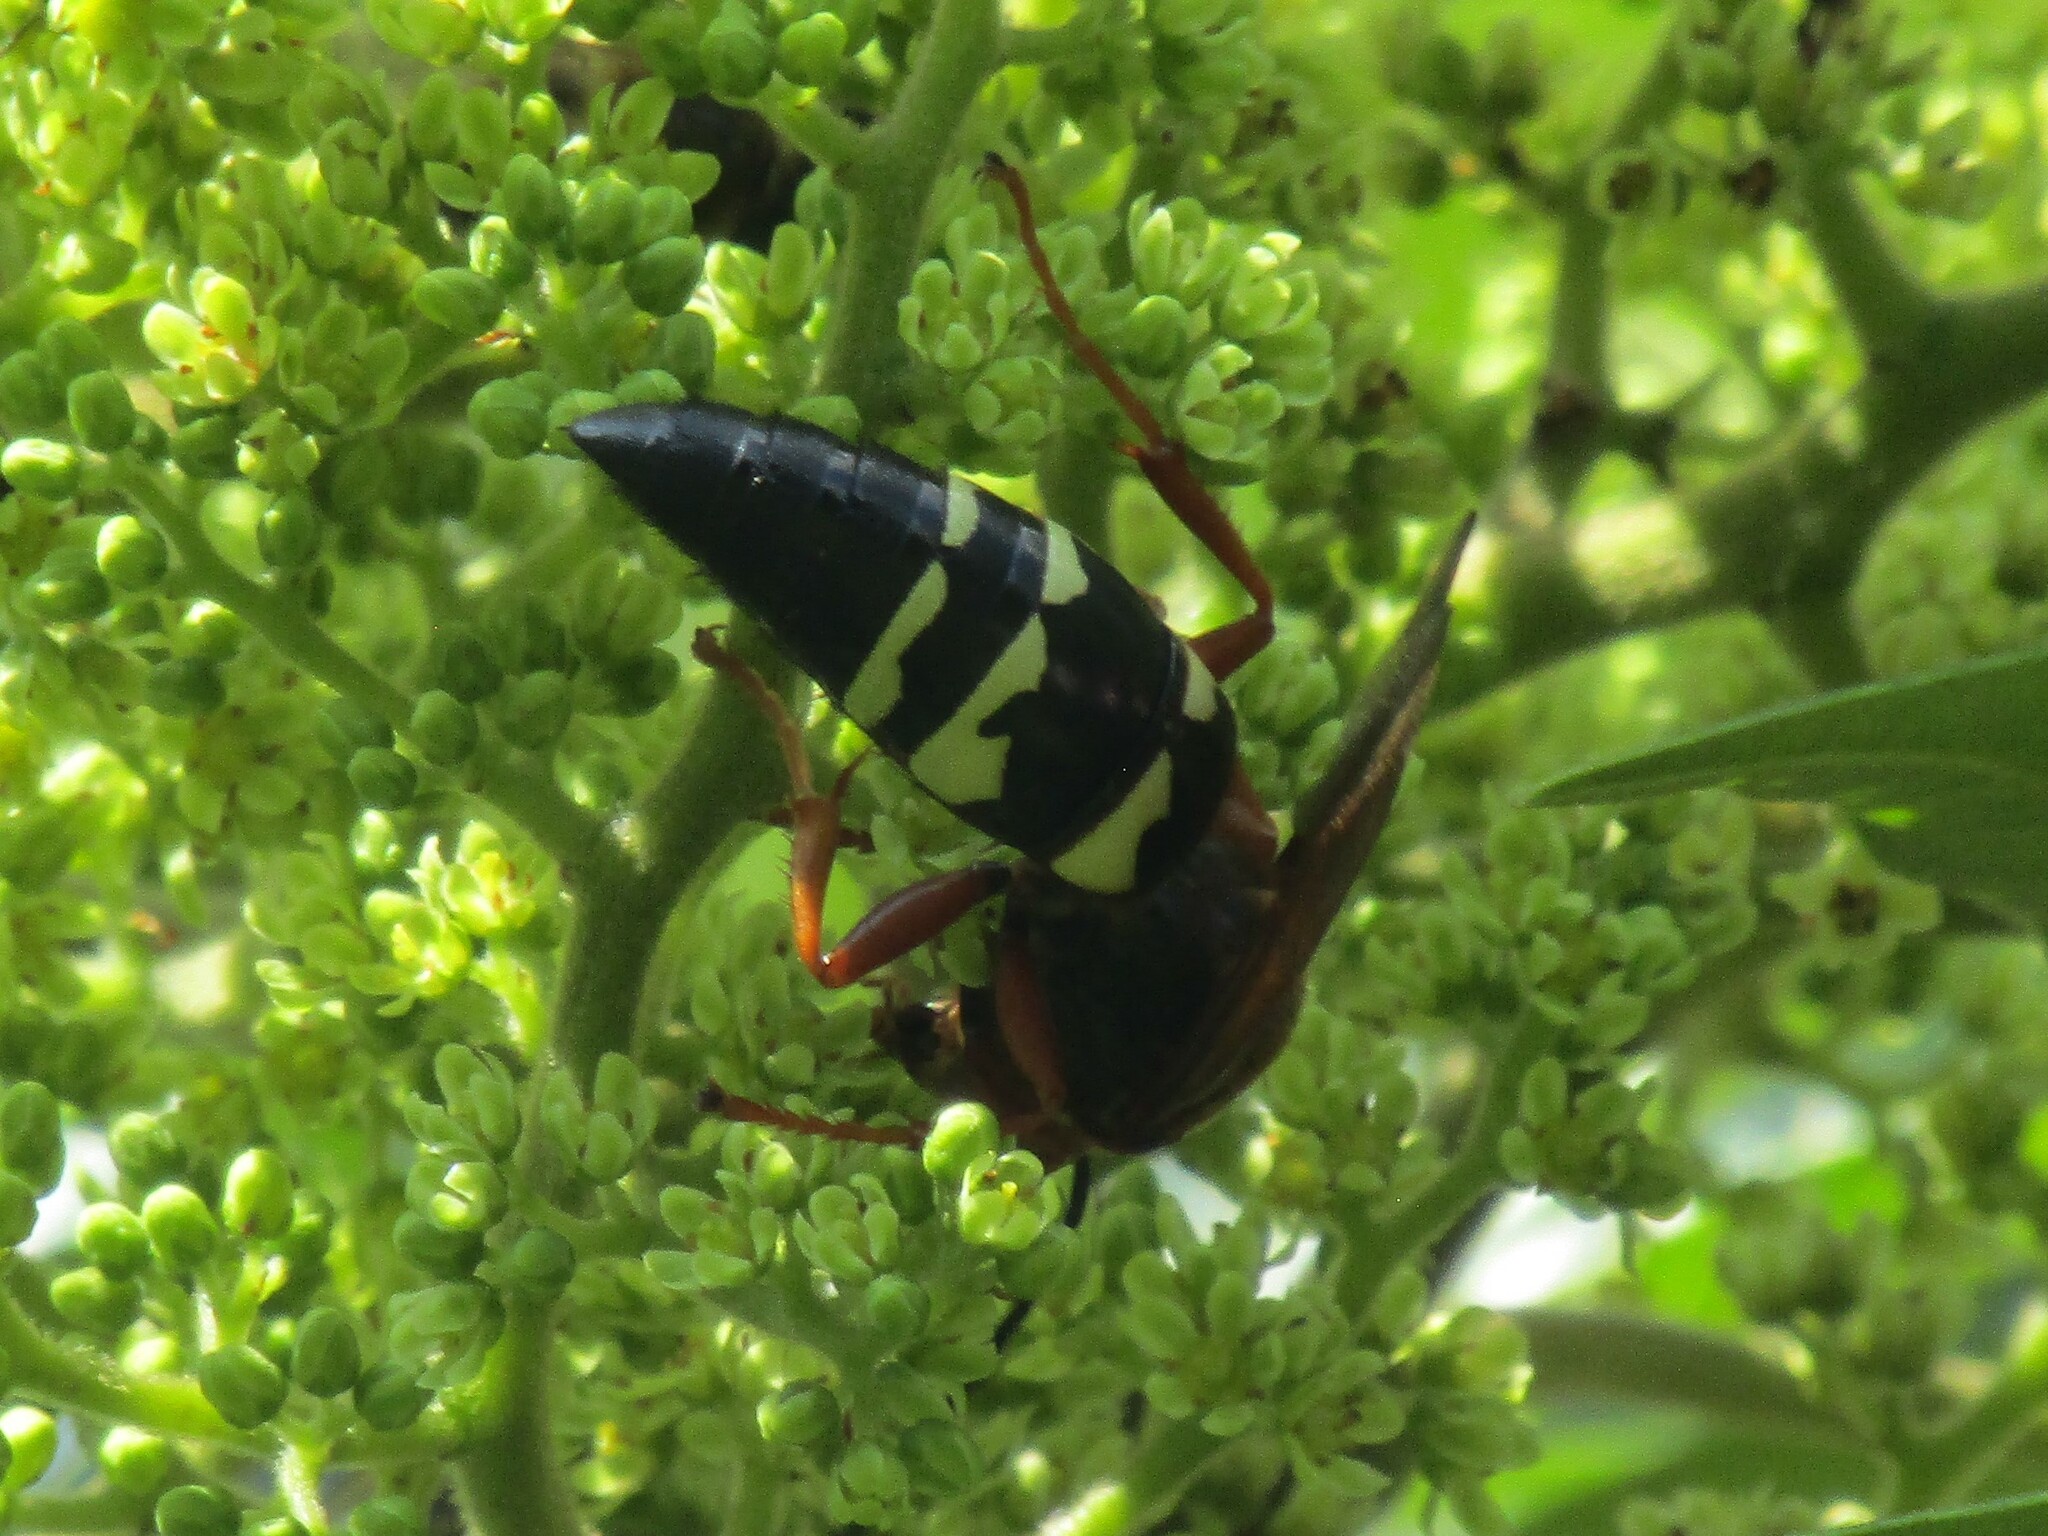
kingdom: Animalia
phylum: Arthropoda
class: Insecta
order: Hymenoptera
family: Crabronidae
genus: Sphecius
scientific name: Sphecius speciosus
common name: Cicada killer
